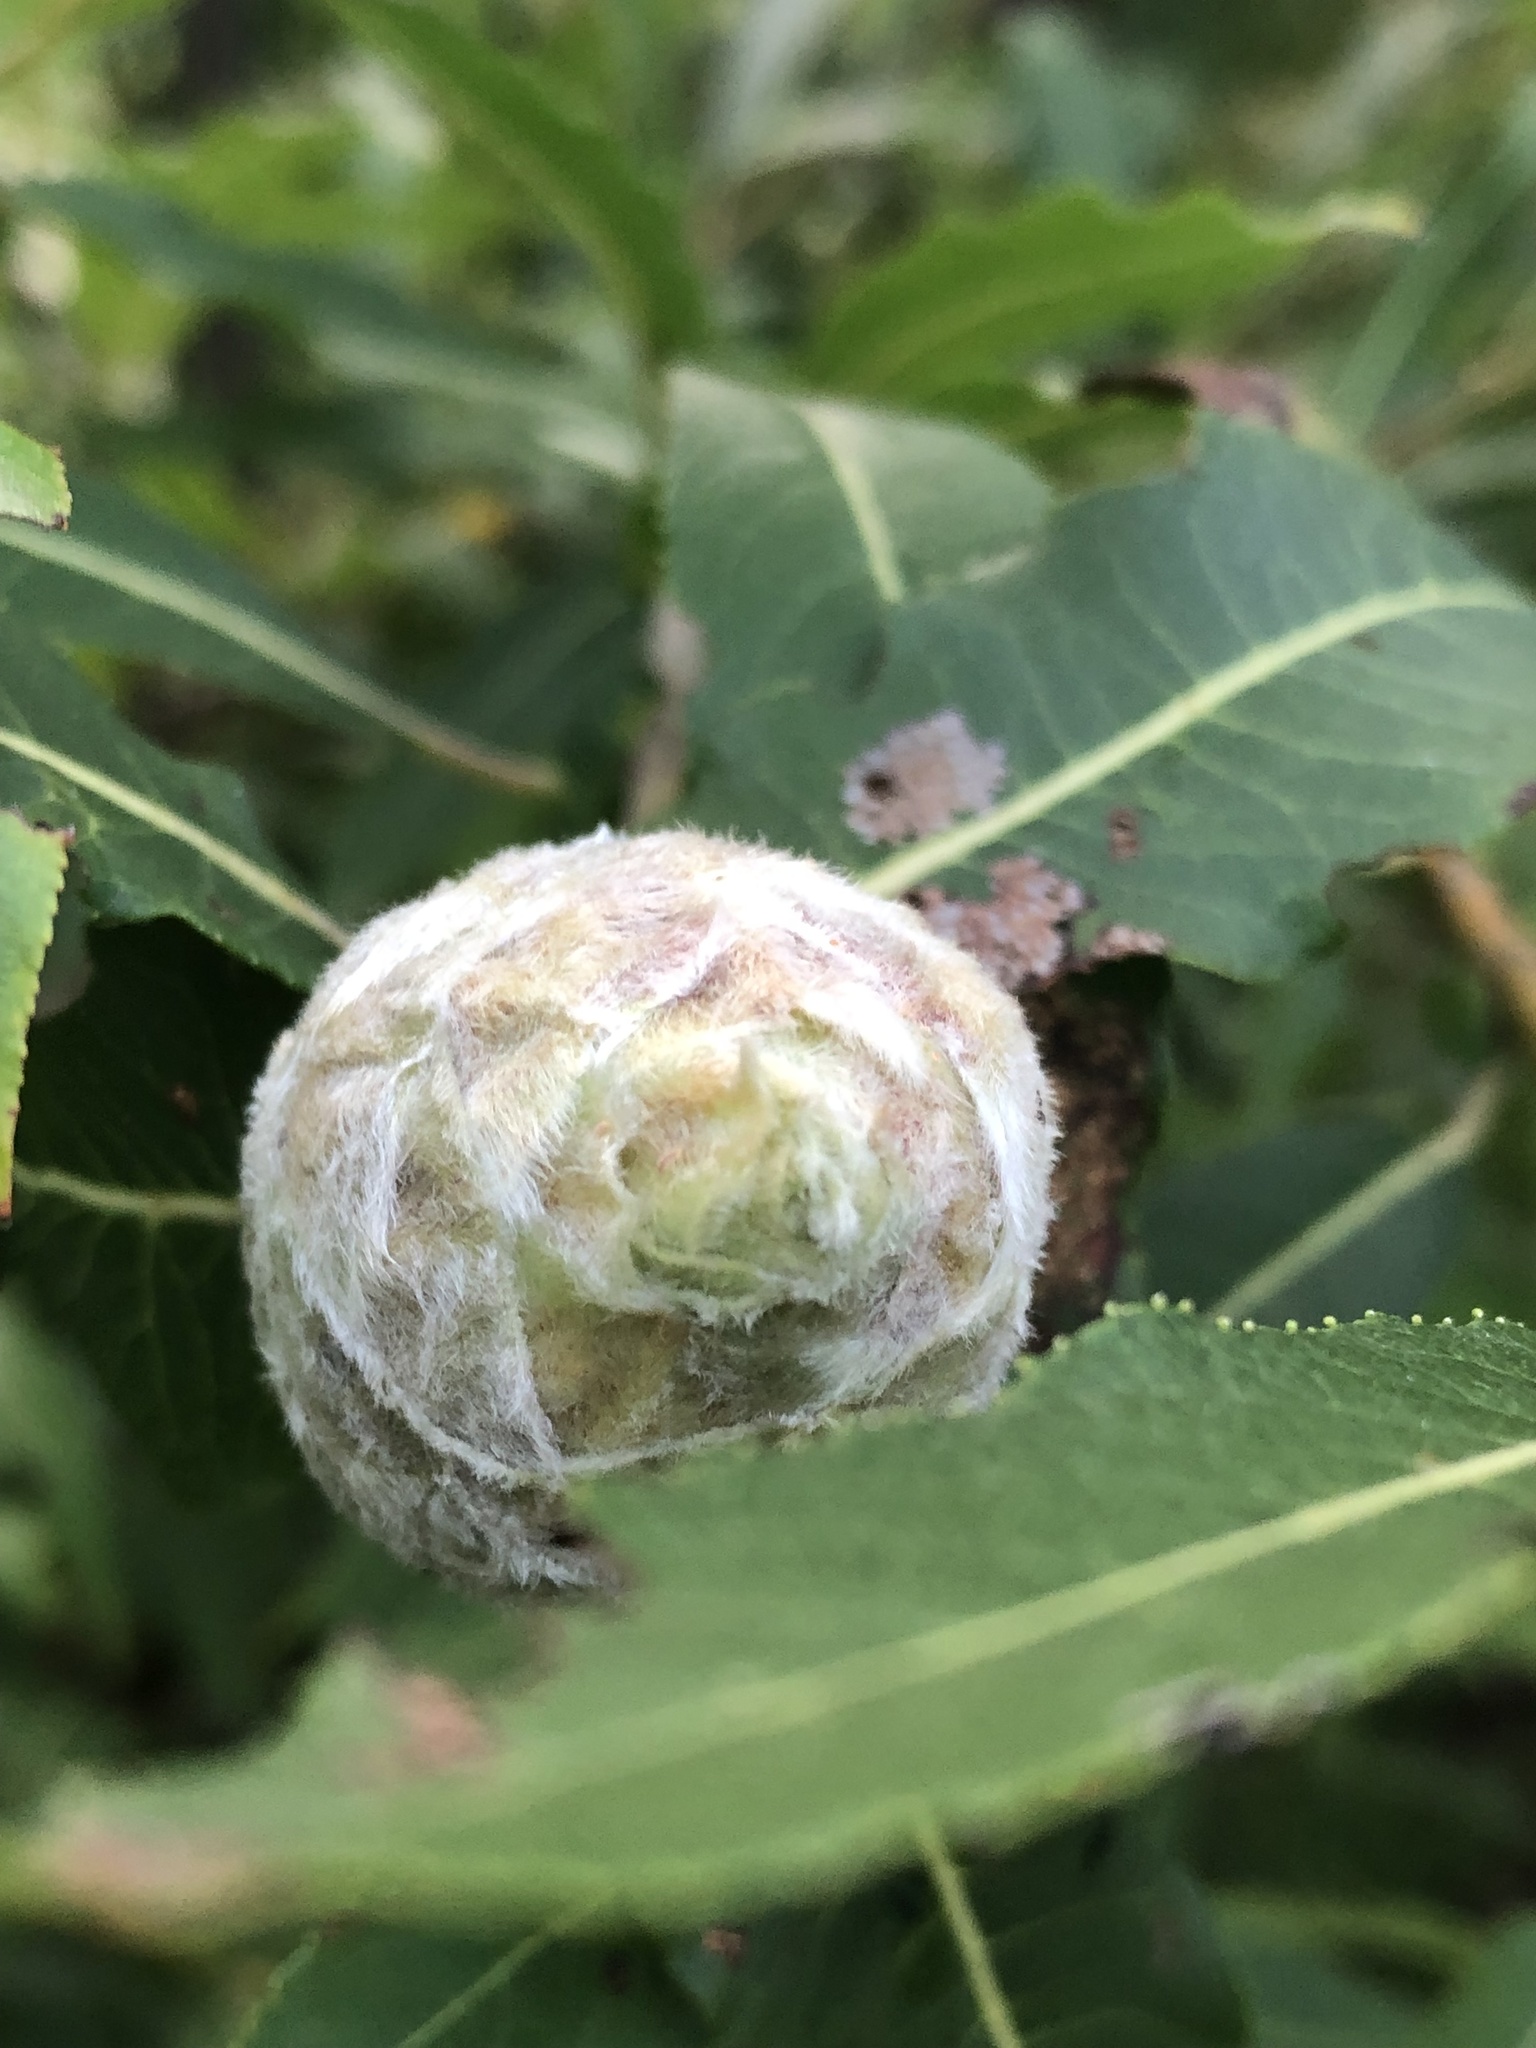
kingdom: Animalia
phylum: Arthropoda
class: Insecta
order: Diptera
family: Cecidomyiidae
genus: Rabdophaga
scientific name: Rabdophaga strobiloides
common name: Willow pinecone gall midge
